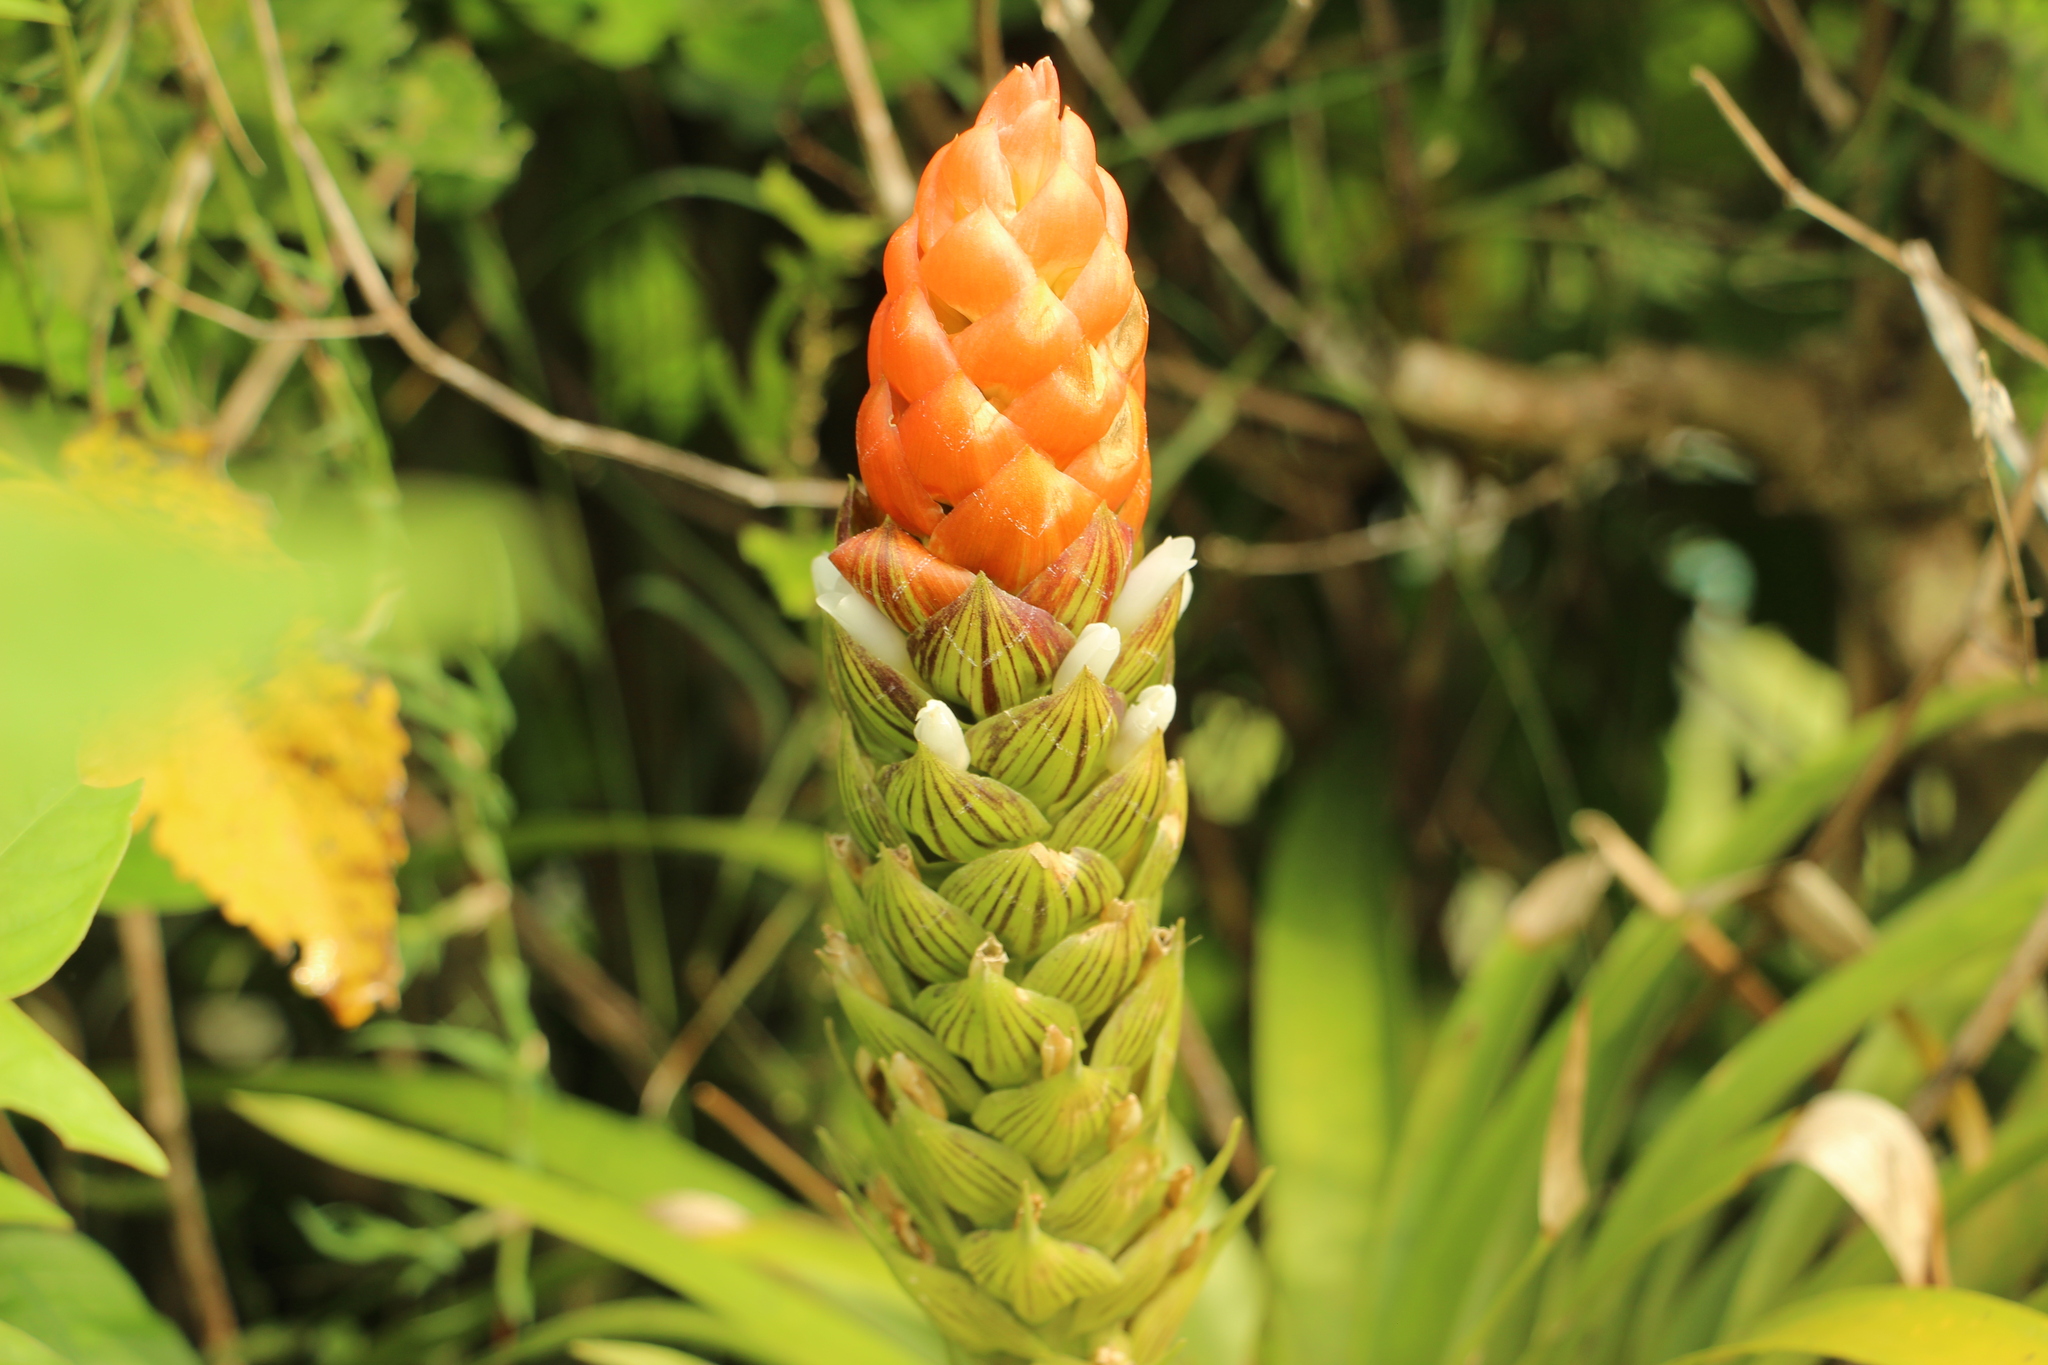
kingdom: Plantae
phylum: Tracheophyta
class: Liliopsida
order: Poales
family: Bromeliaceae
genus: Guzmania
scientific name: Guzmania monostachia
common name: West indian tufted airplant
